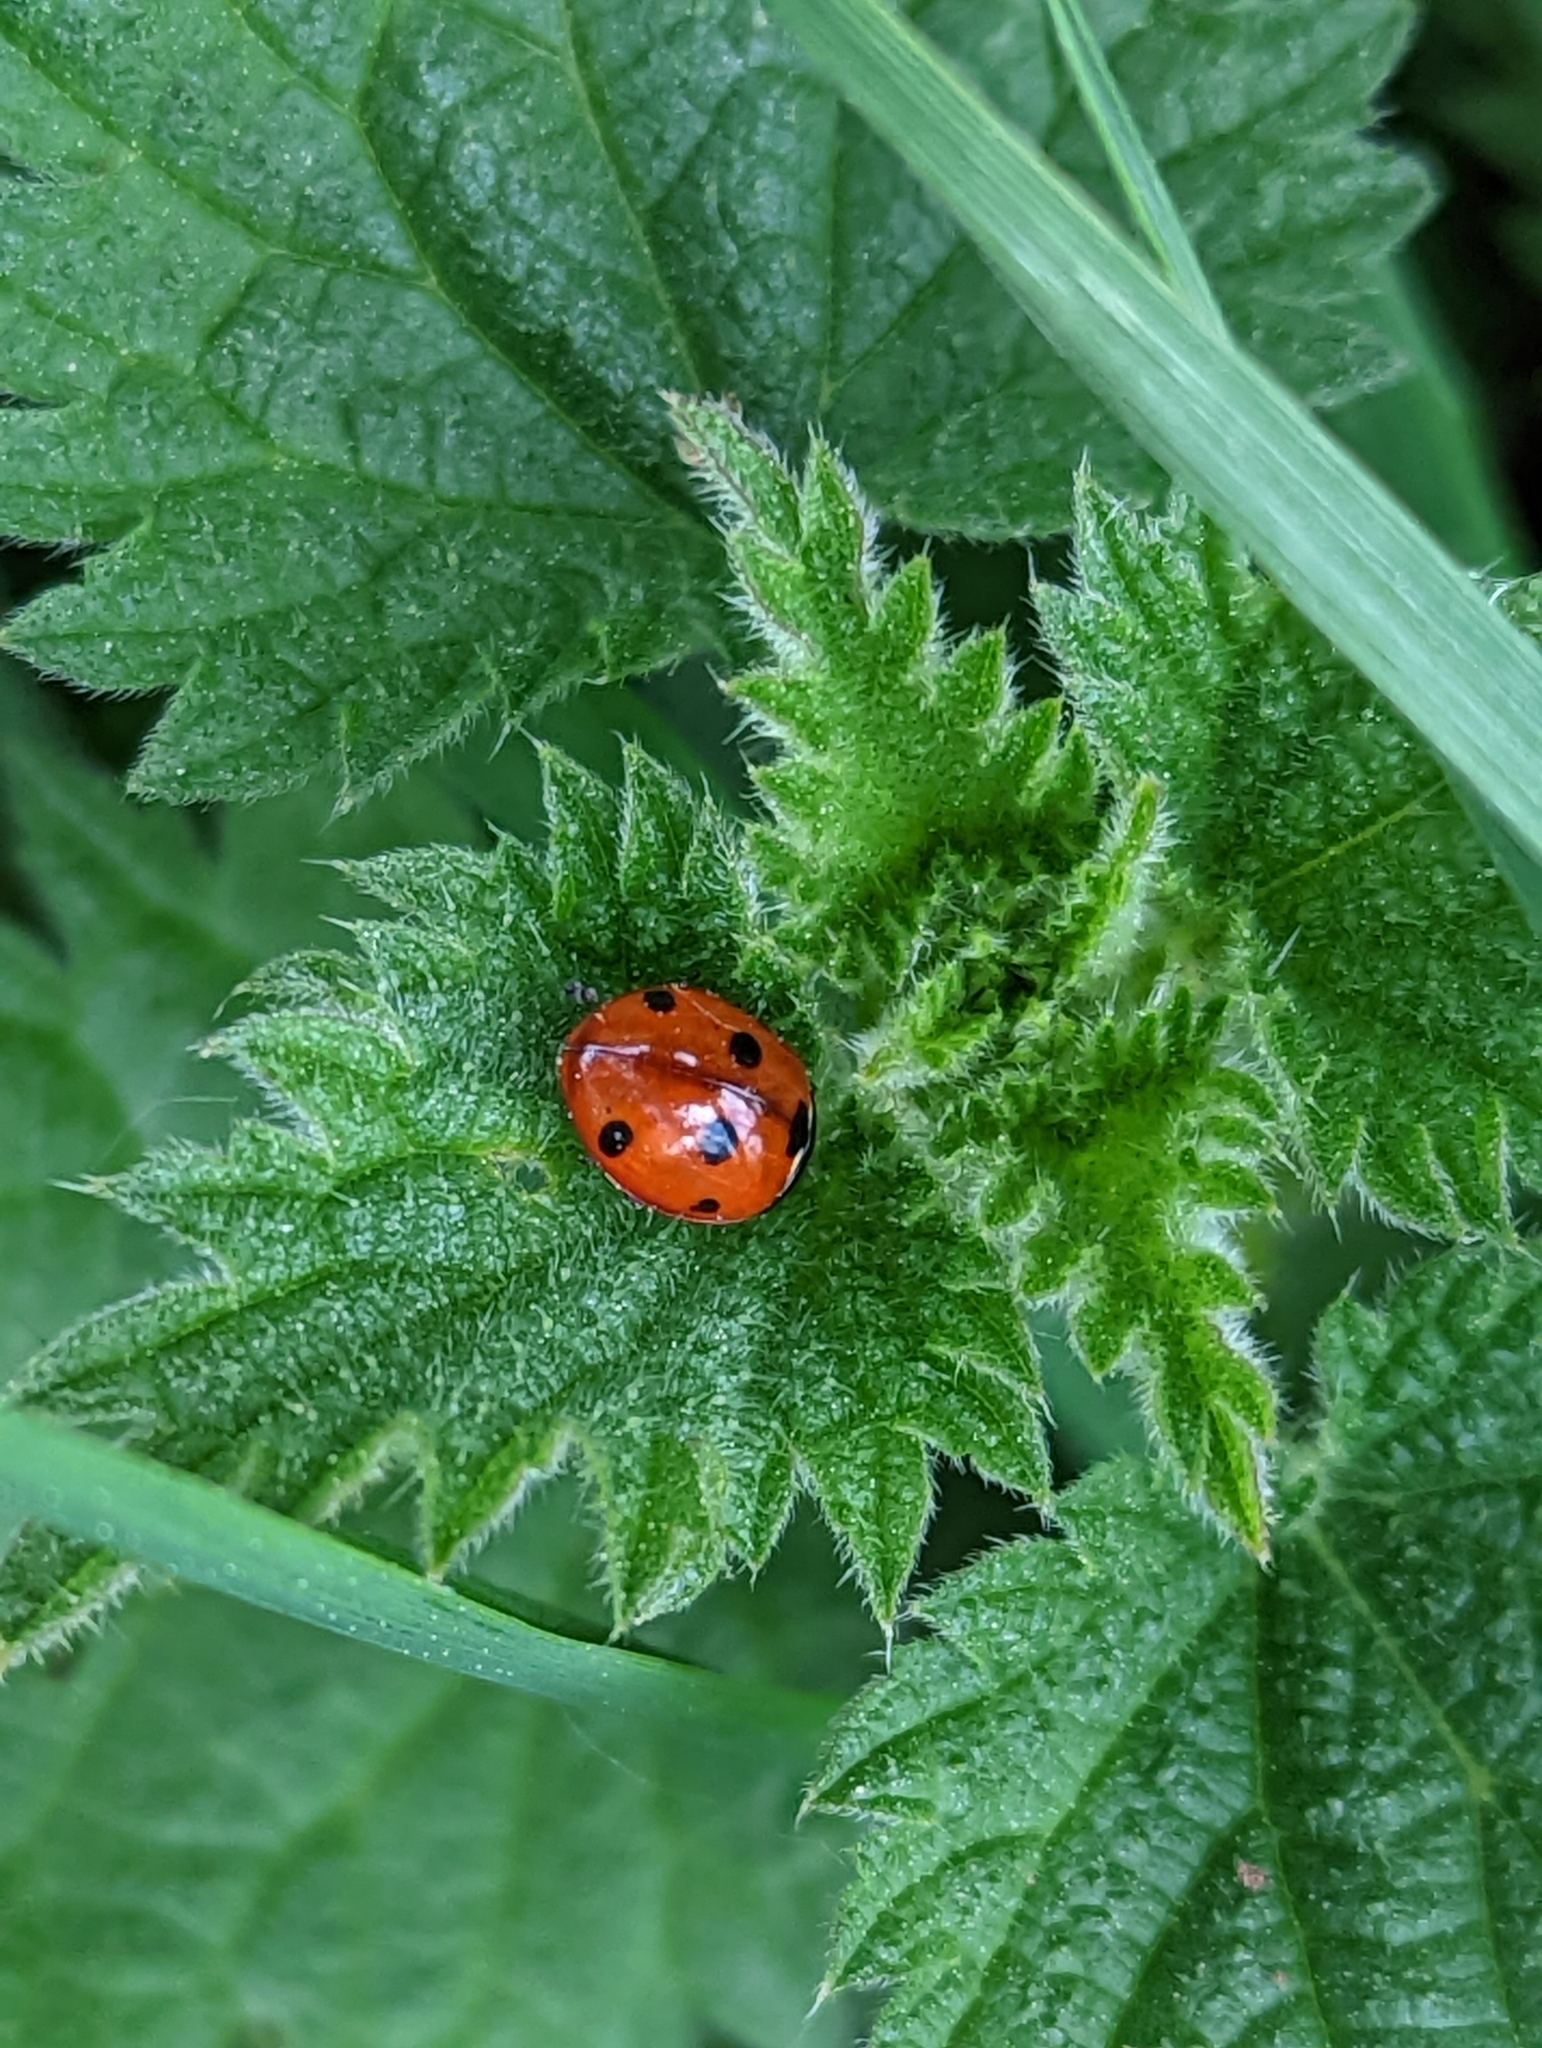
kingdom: Animalia
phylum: Arthropoda
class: Insecta
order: Coleoptera
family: Coccinellidae
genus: Coccinella
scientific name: Coccinella septempunctata
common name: Sevenspotted lady beetle
